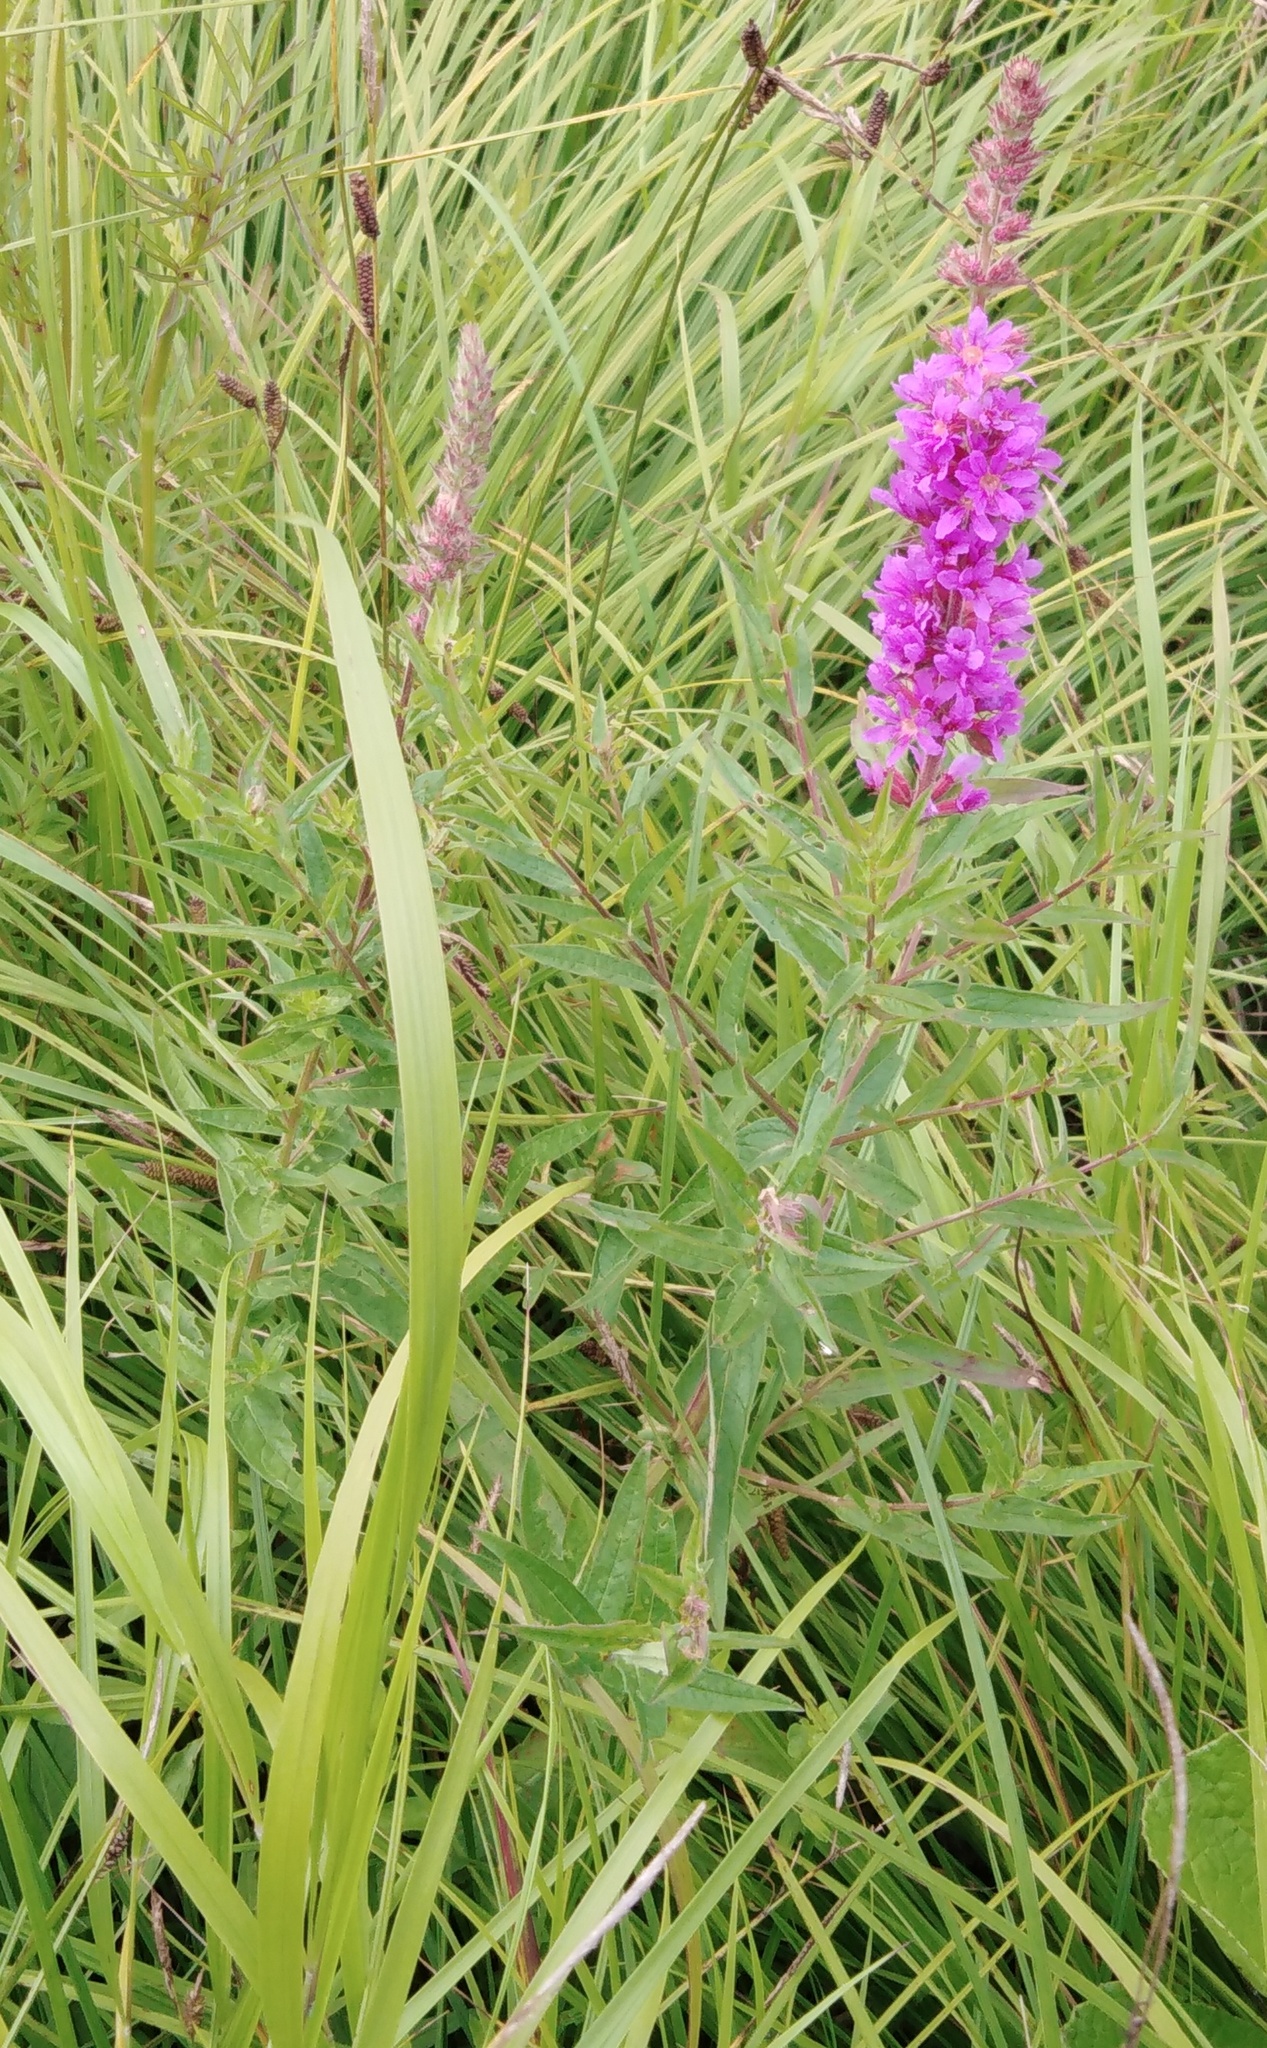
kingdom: Plantae
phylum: Tracheophyta
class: Magnoliopsida
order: Myrtales
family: Lythraceae
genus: Lythrum
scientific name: Lythrum salicaria
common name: Purple loosestrife
